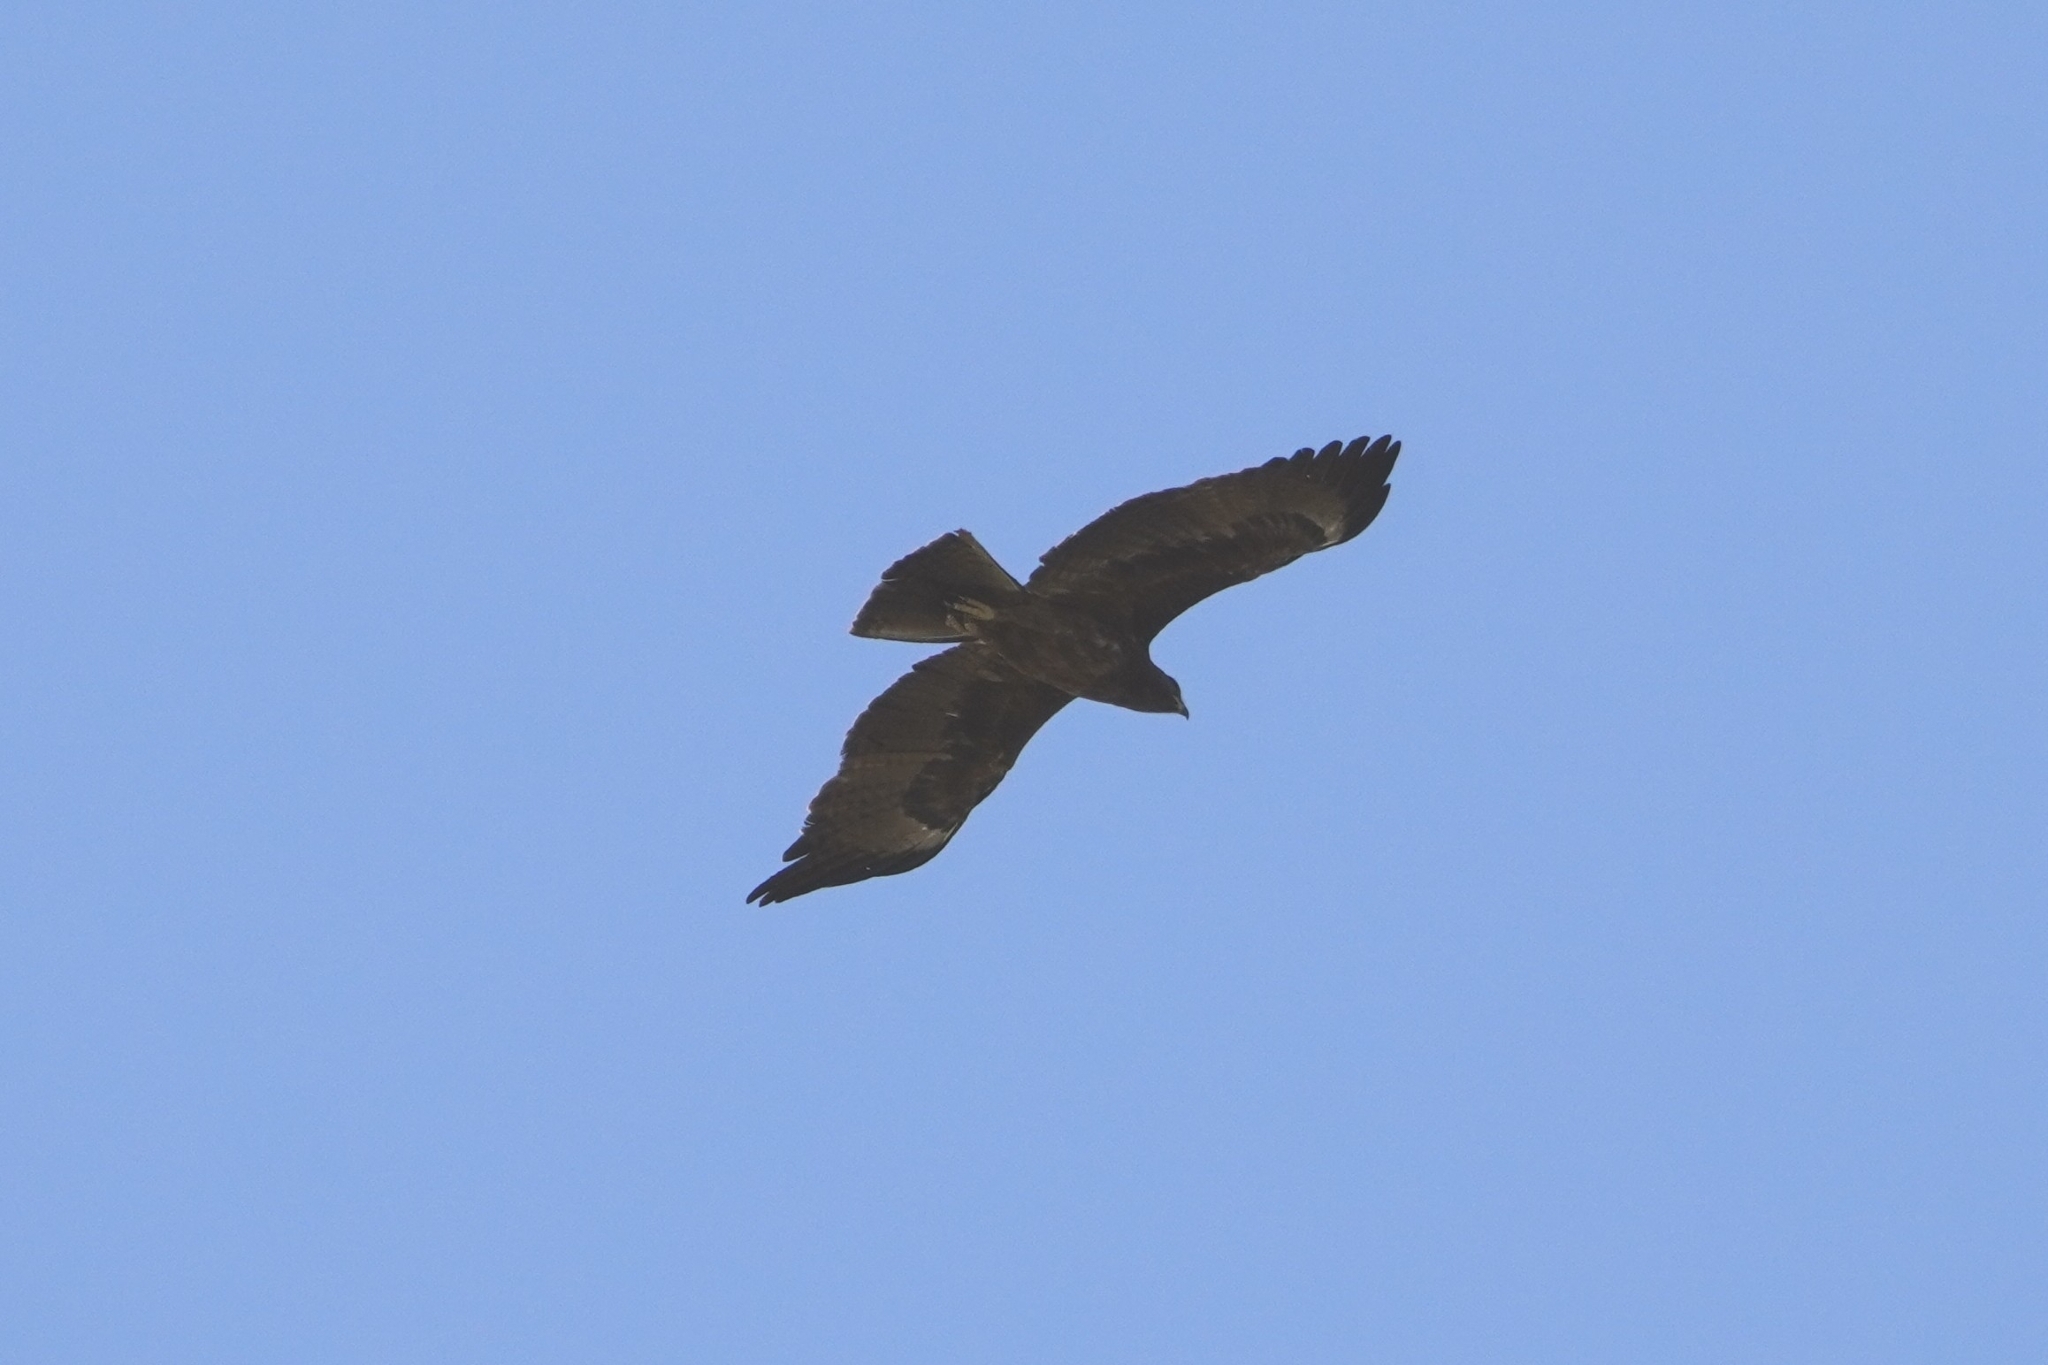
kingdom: Animalia
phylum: Chordata
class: Aves
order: Accipitriformes
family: Accipitridae
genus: Hieraaetus
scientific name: Hieraaetus wahlbergi
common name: Wahlberg's eagle
